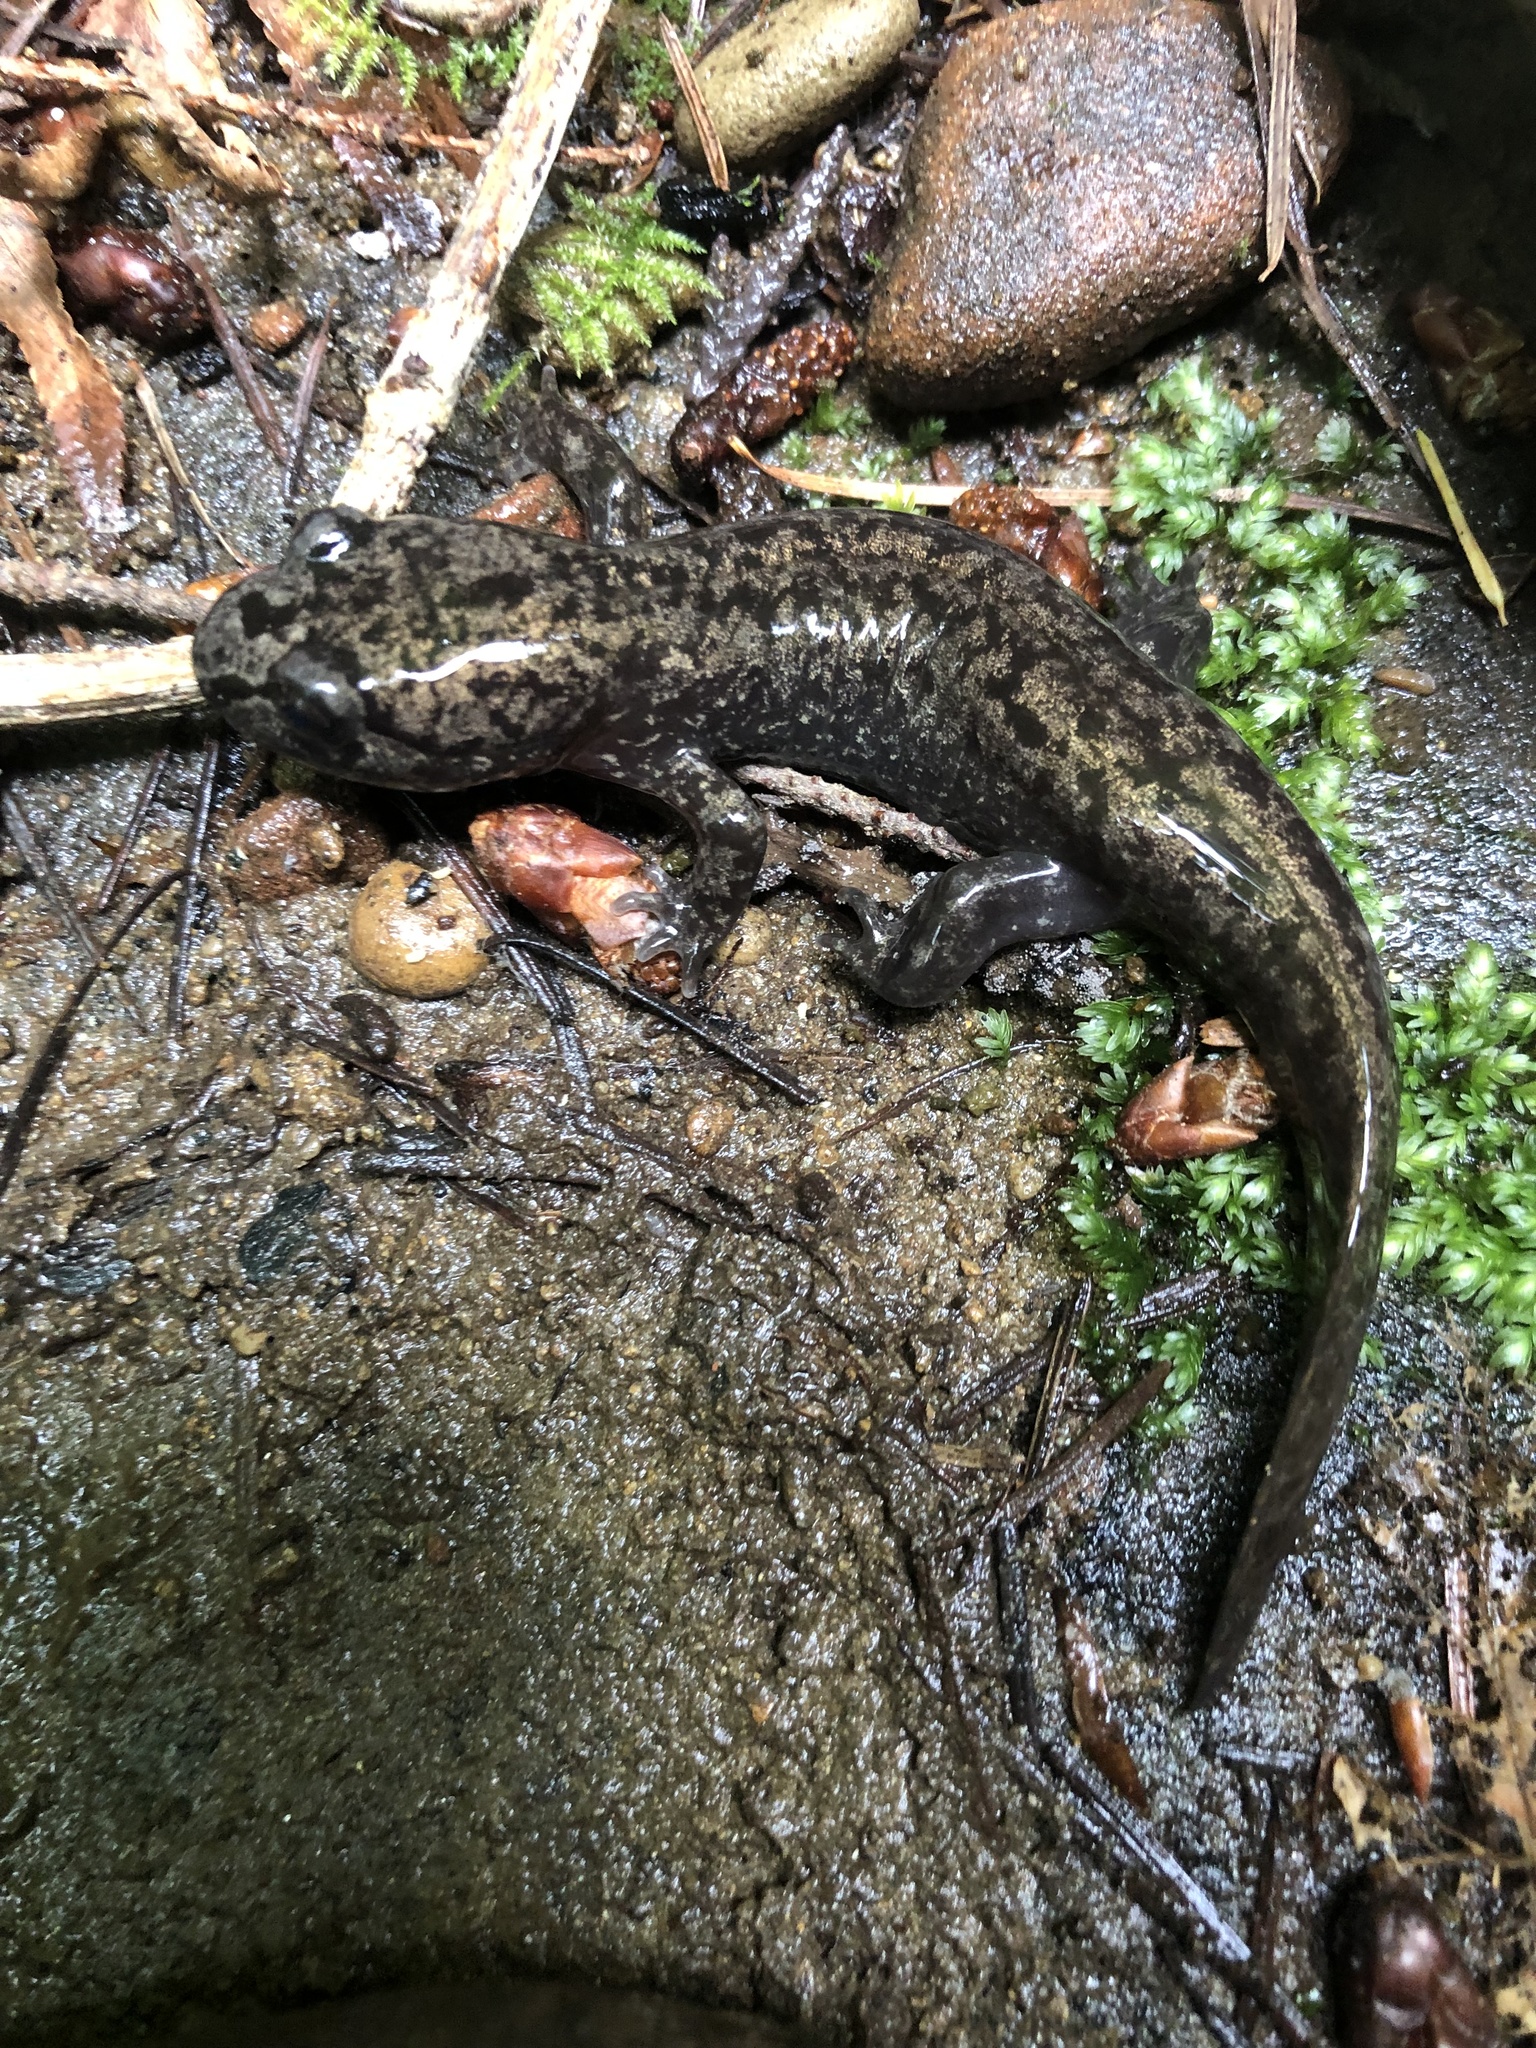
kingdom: Animalia
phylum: Chordata
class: Amphibia
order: Caudata
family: Ambystomatidae
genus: Dicamptodon
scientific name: Dicamptodon tenebrosus
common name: Coastal giant salamander
